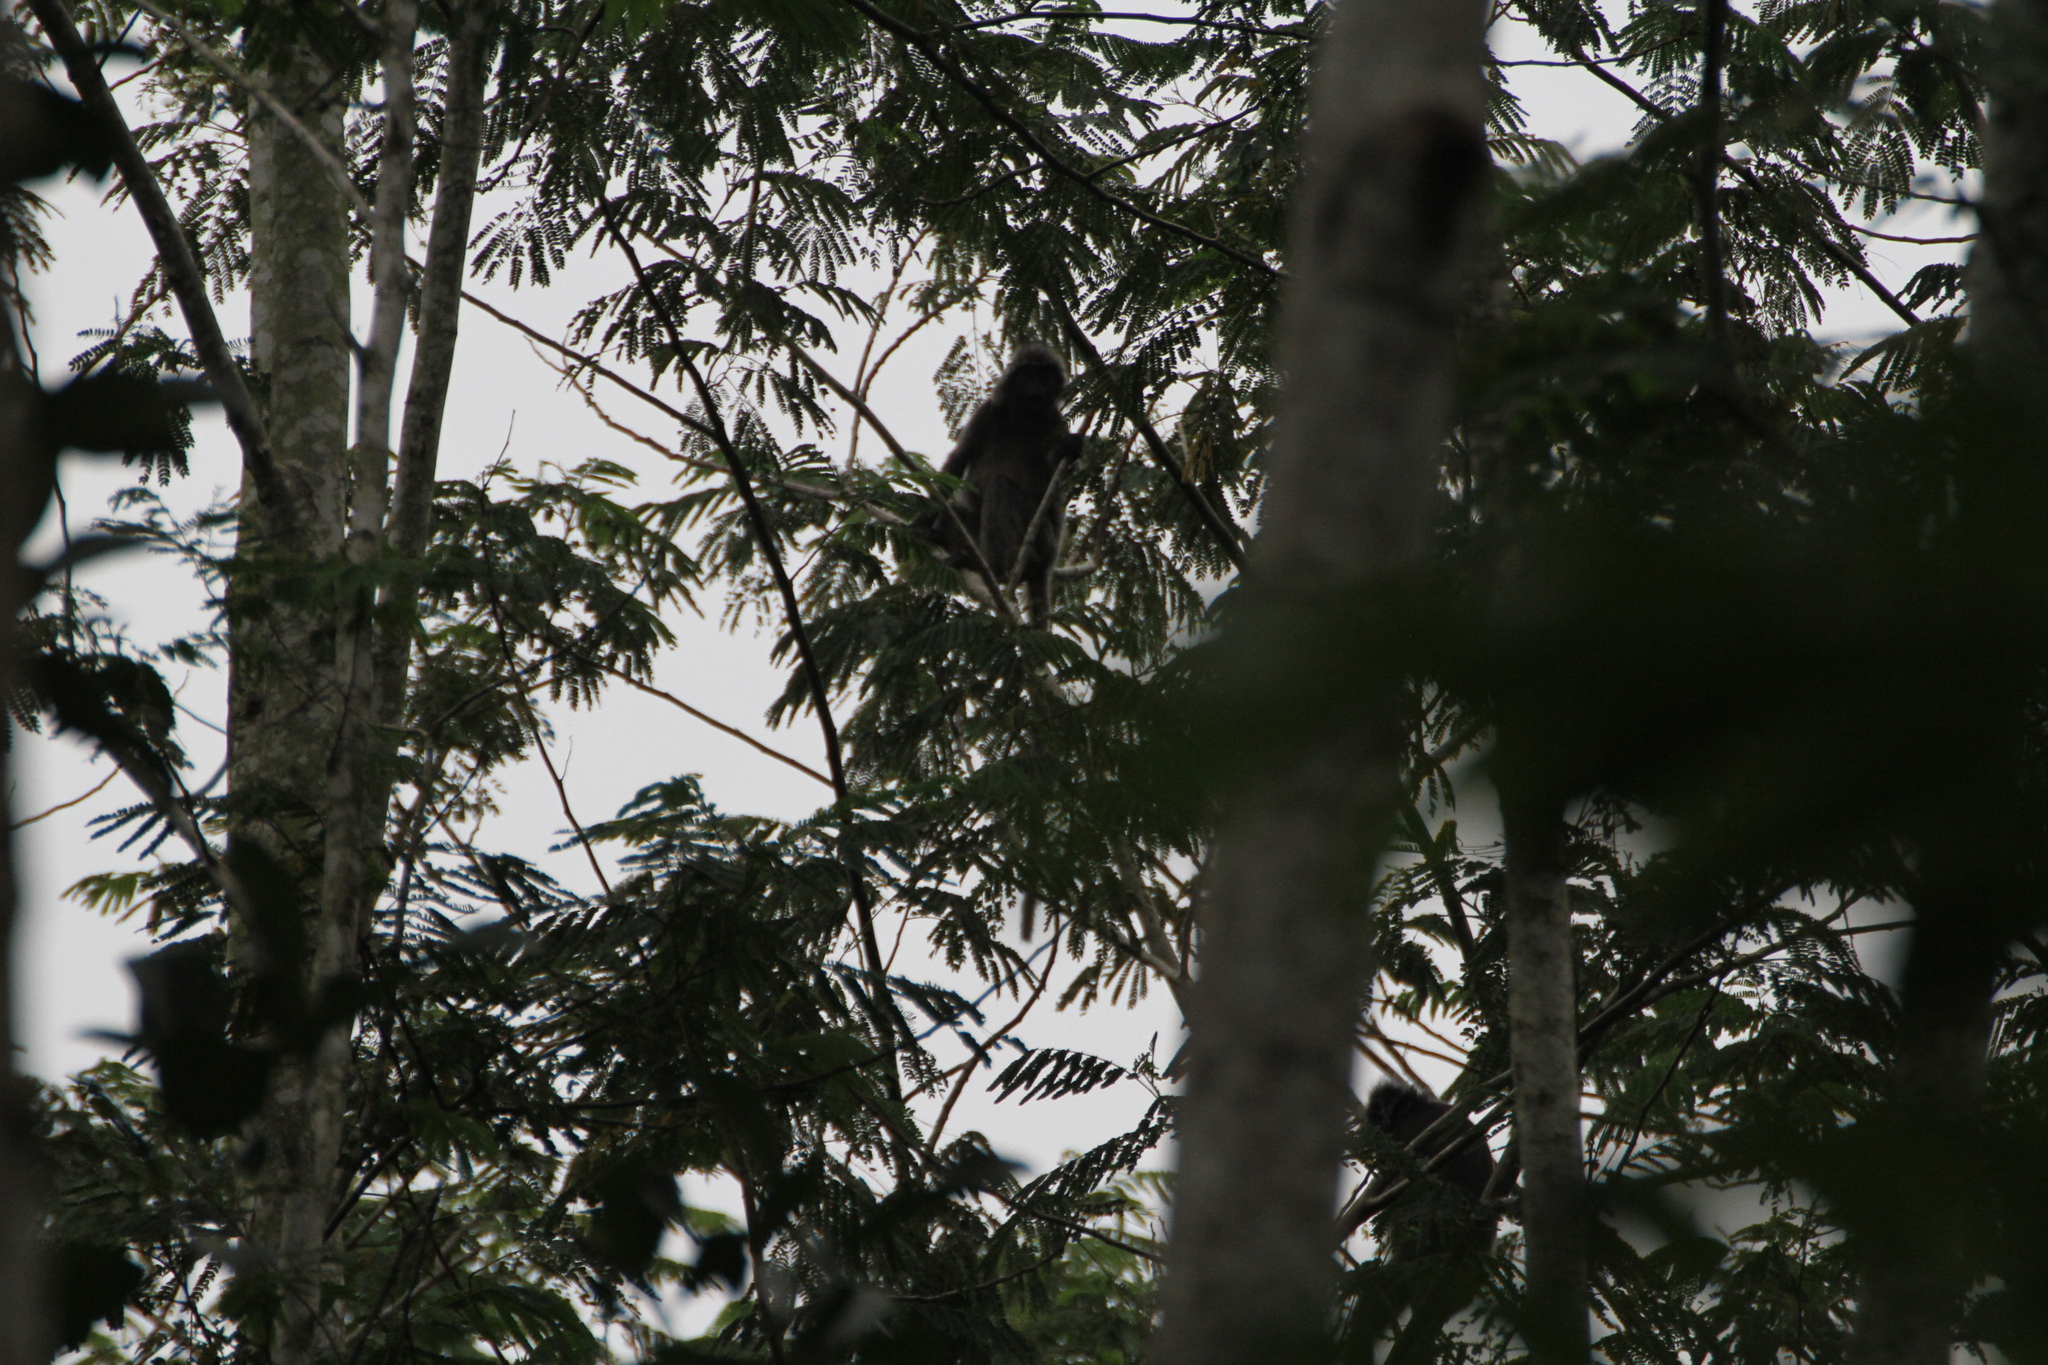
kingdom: Animalia
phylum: Chordata
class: Mammalia
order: Primates
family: Cercopithecidae
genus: Trachypithecus
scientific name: Trachypithecus cristatus
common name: Silvery lutung
